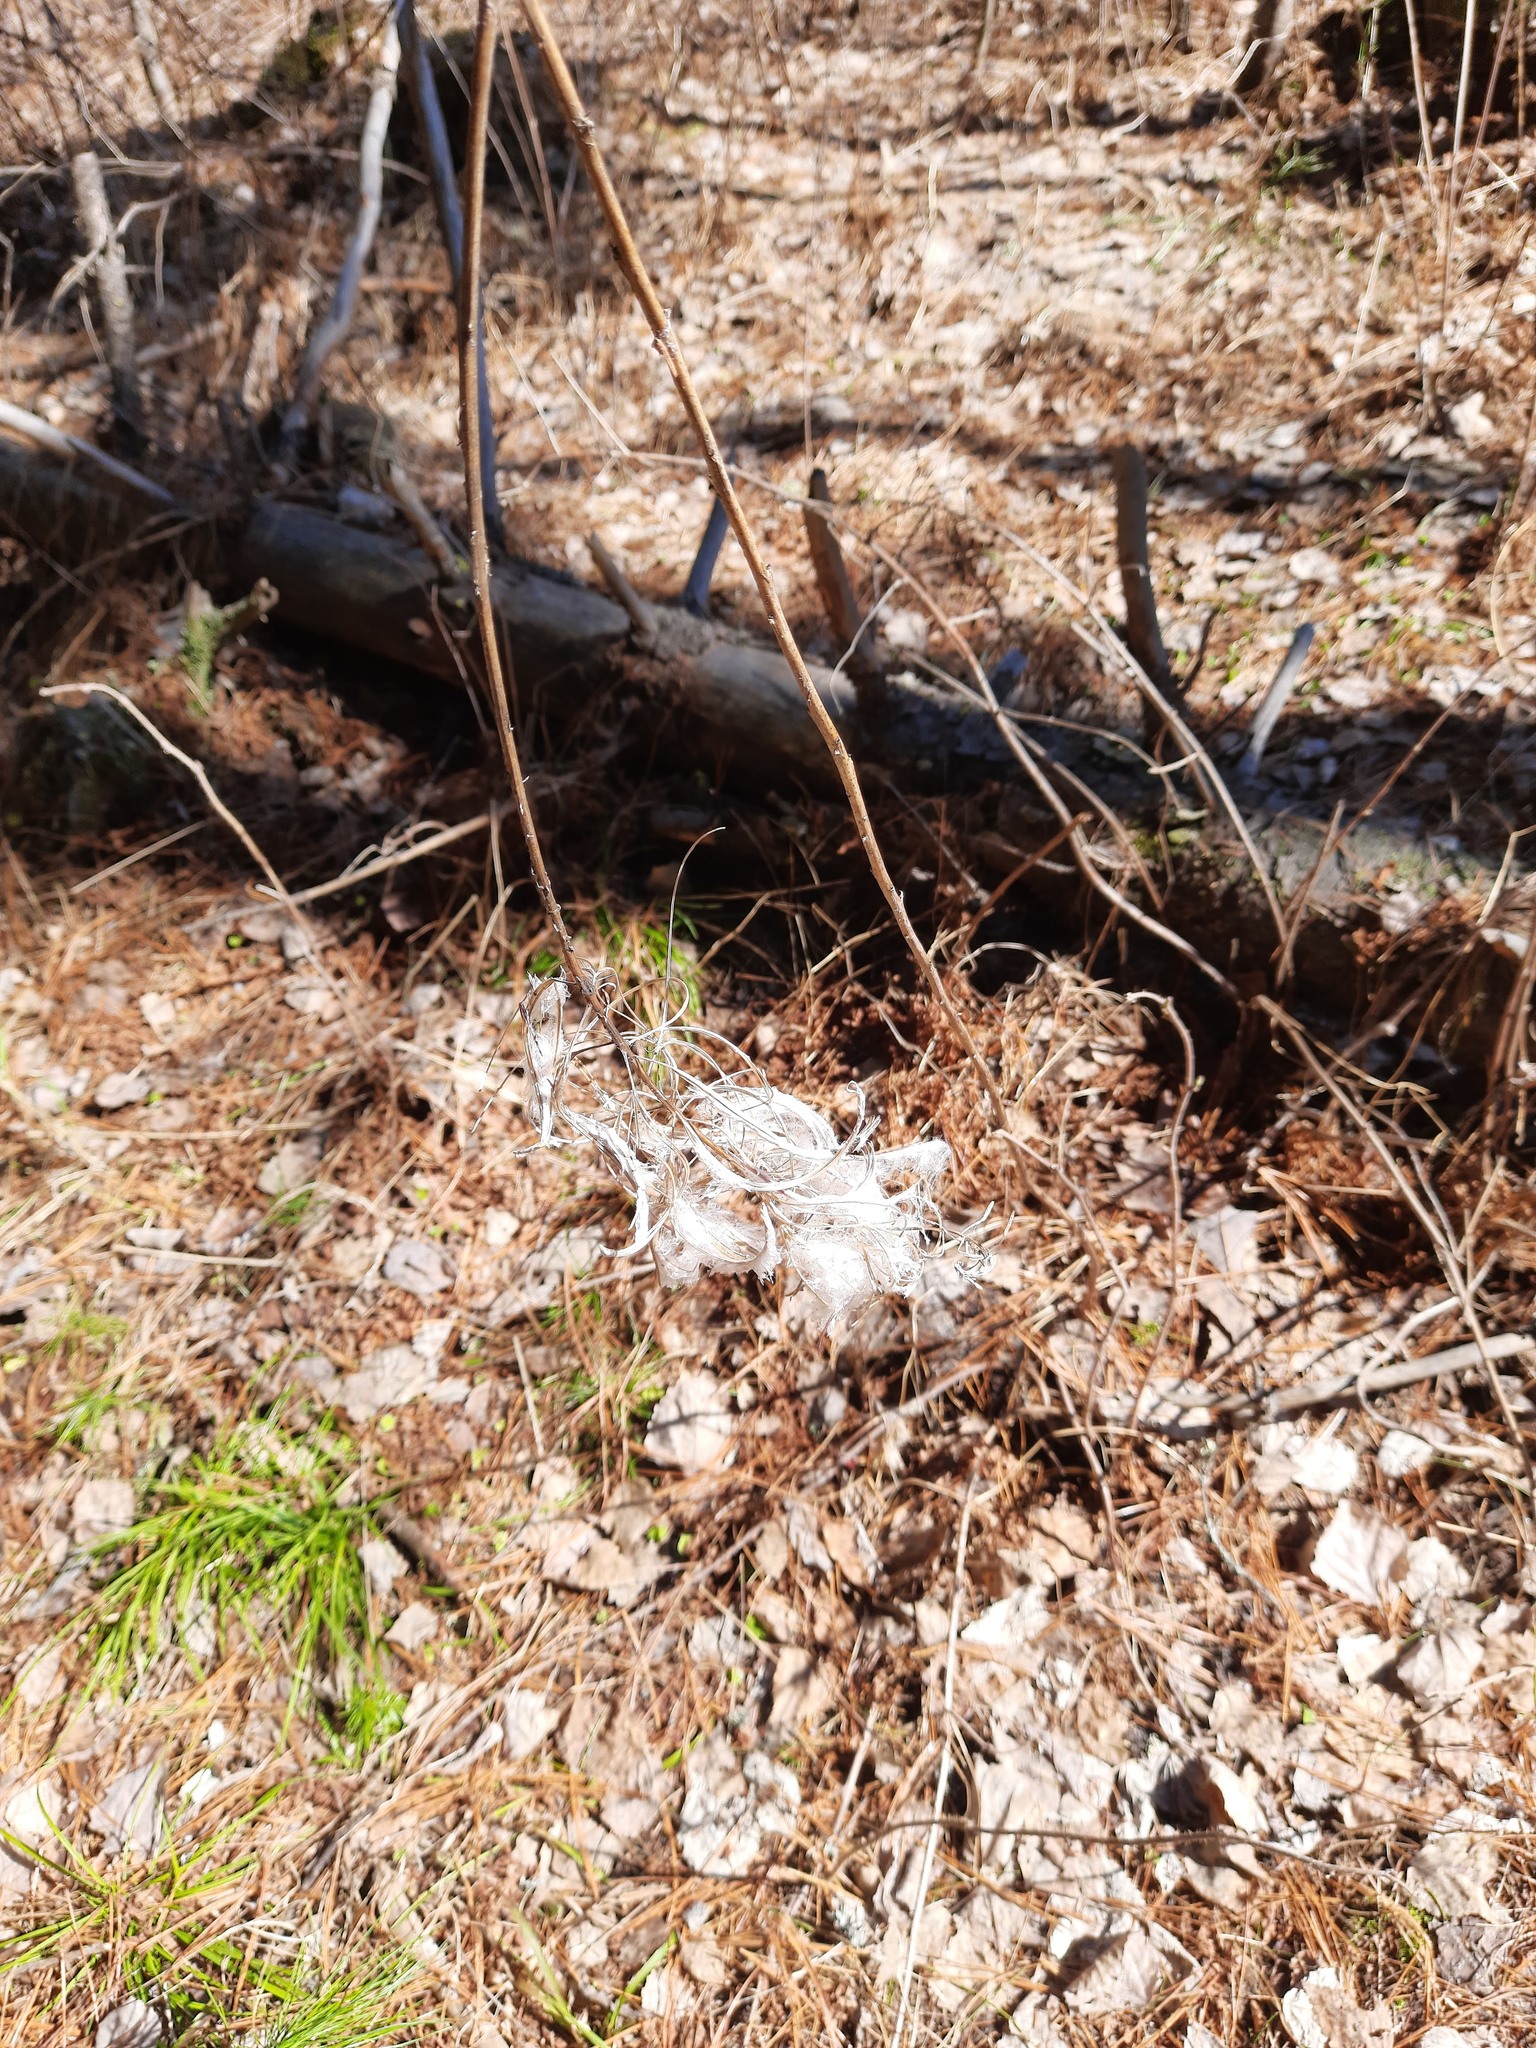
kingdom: Plantae
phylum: Tracheophyta
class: Magnoliopsida
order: Myrtales
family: Onagraceae
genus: Chamaenerion
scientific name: Chamaenerion angustifolium
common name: Fireweed
